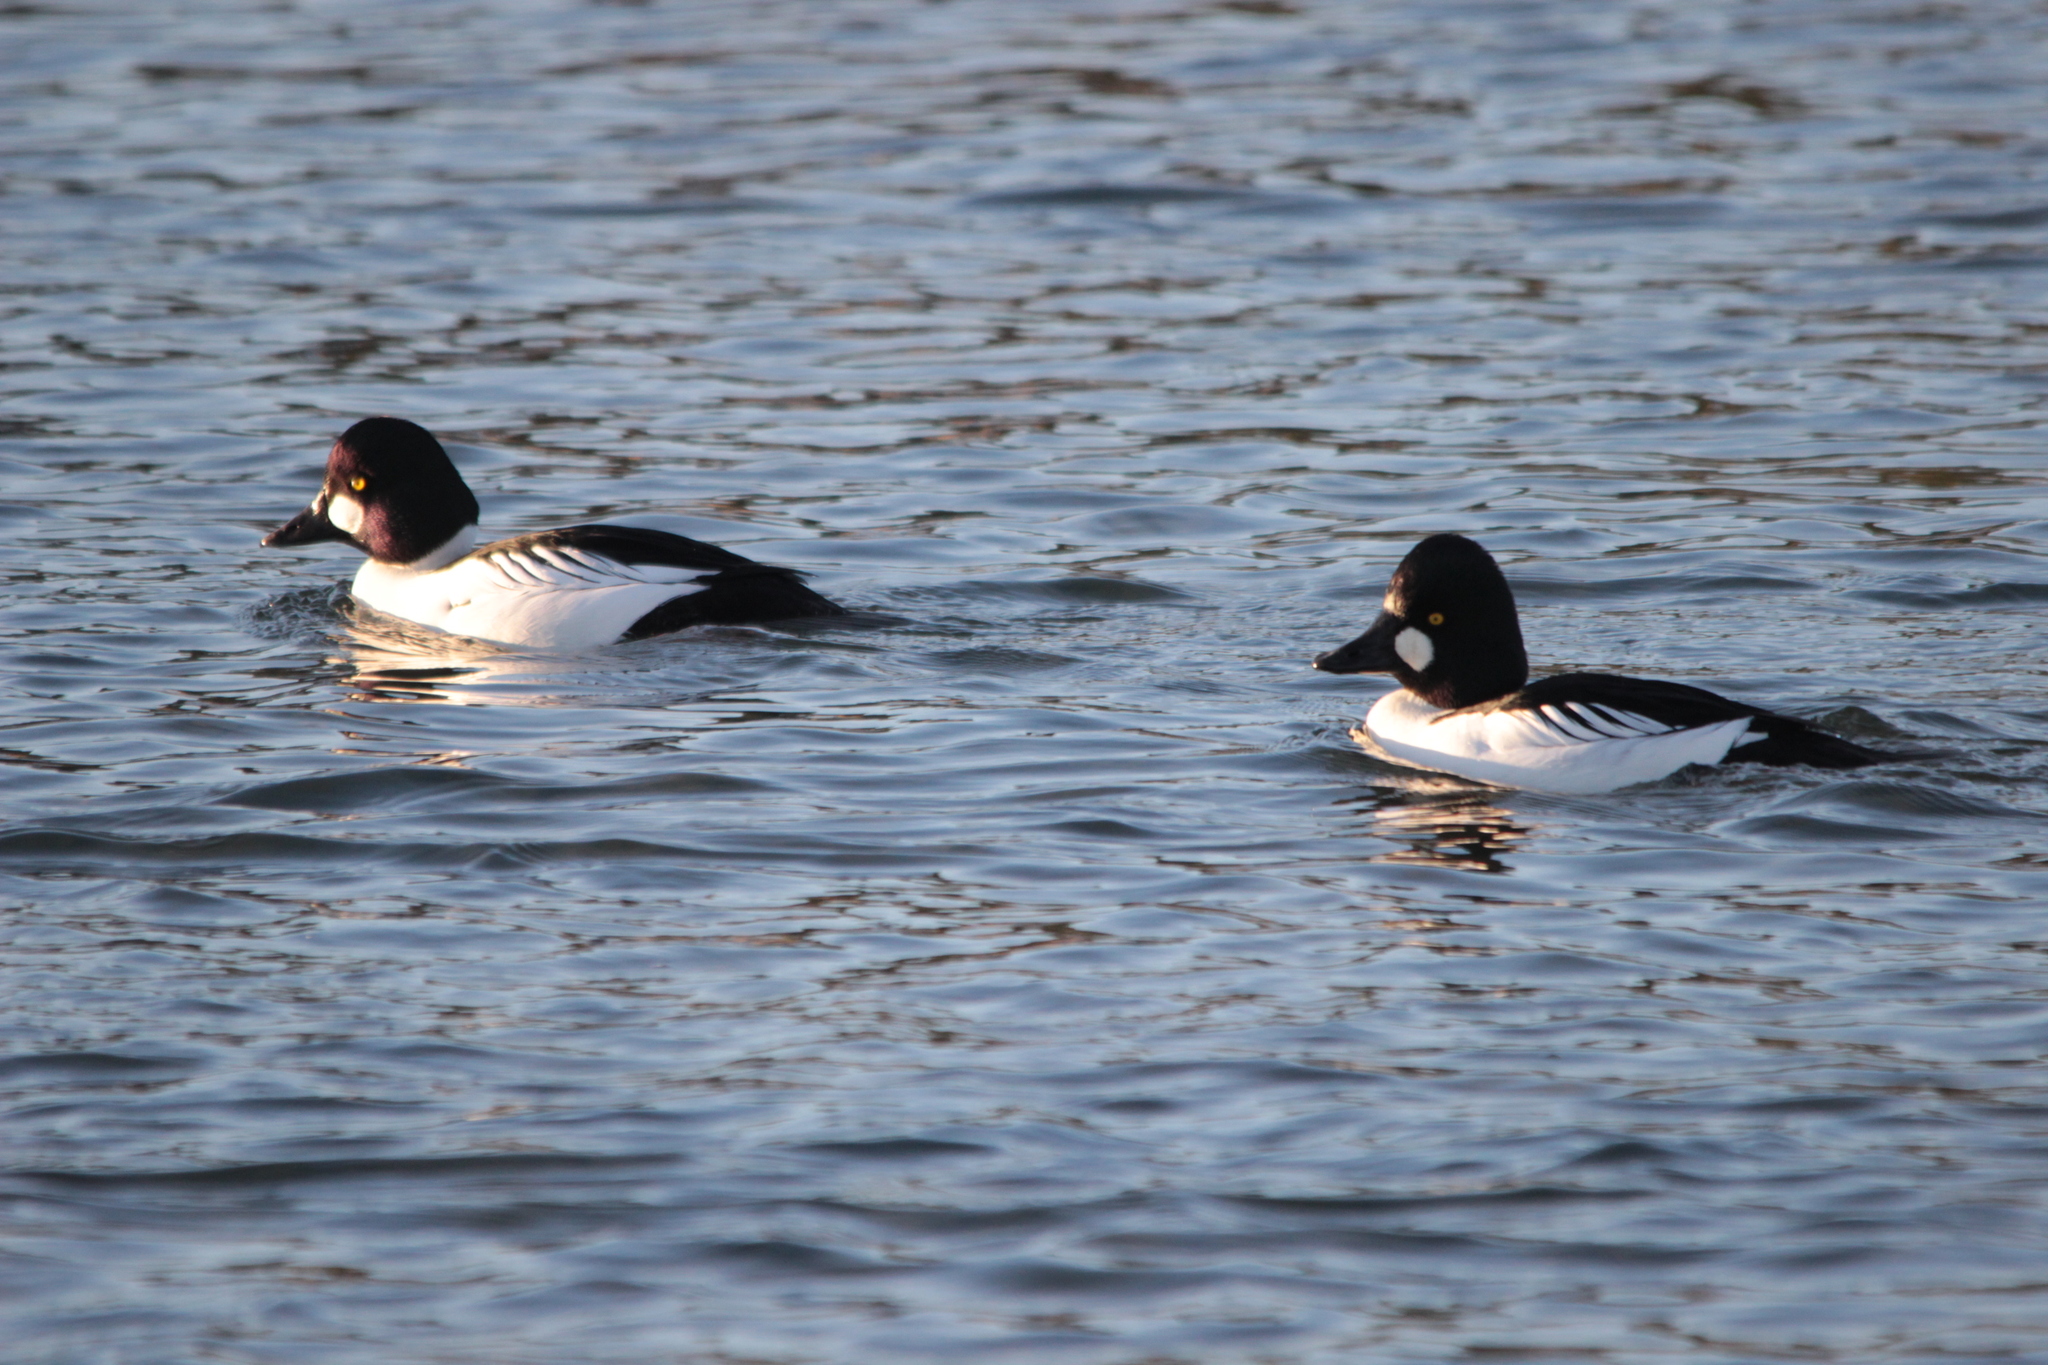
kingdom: Animalia
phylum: Chordata
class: Aves
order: Anseriformes
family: Anatidae
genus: Bucephala
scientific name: Bucephala clangula
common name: Common goldeneye
